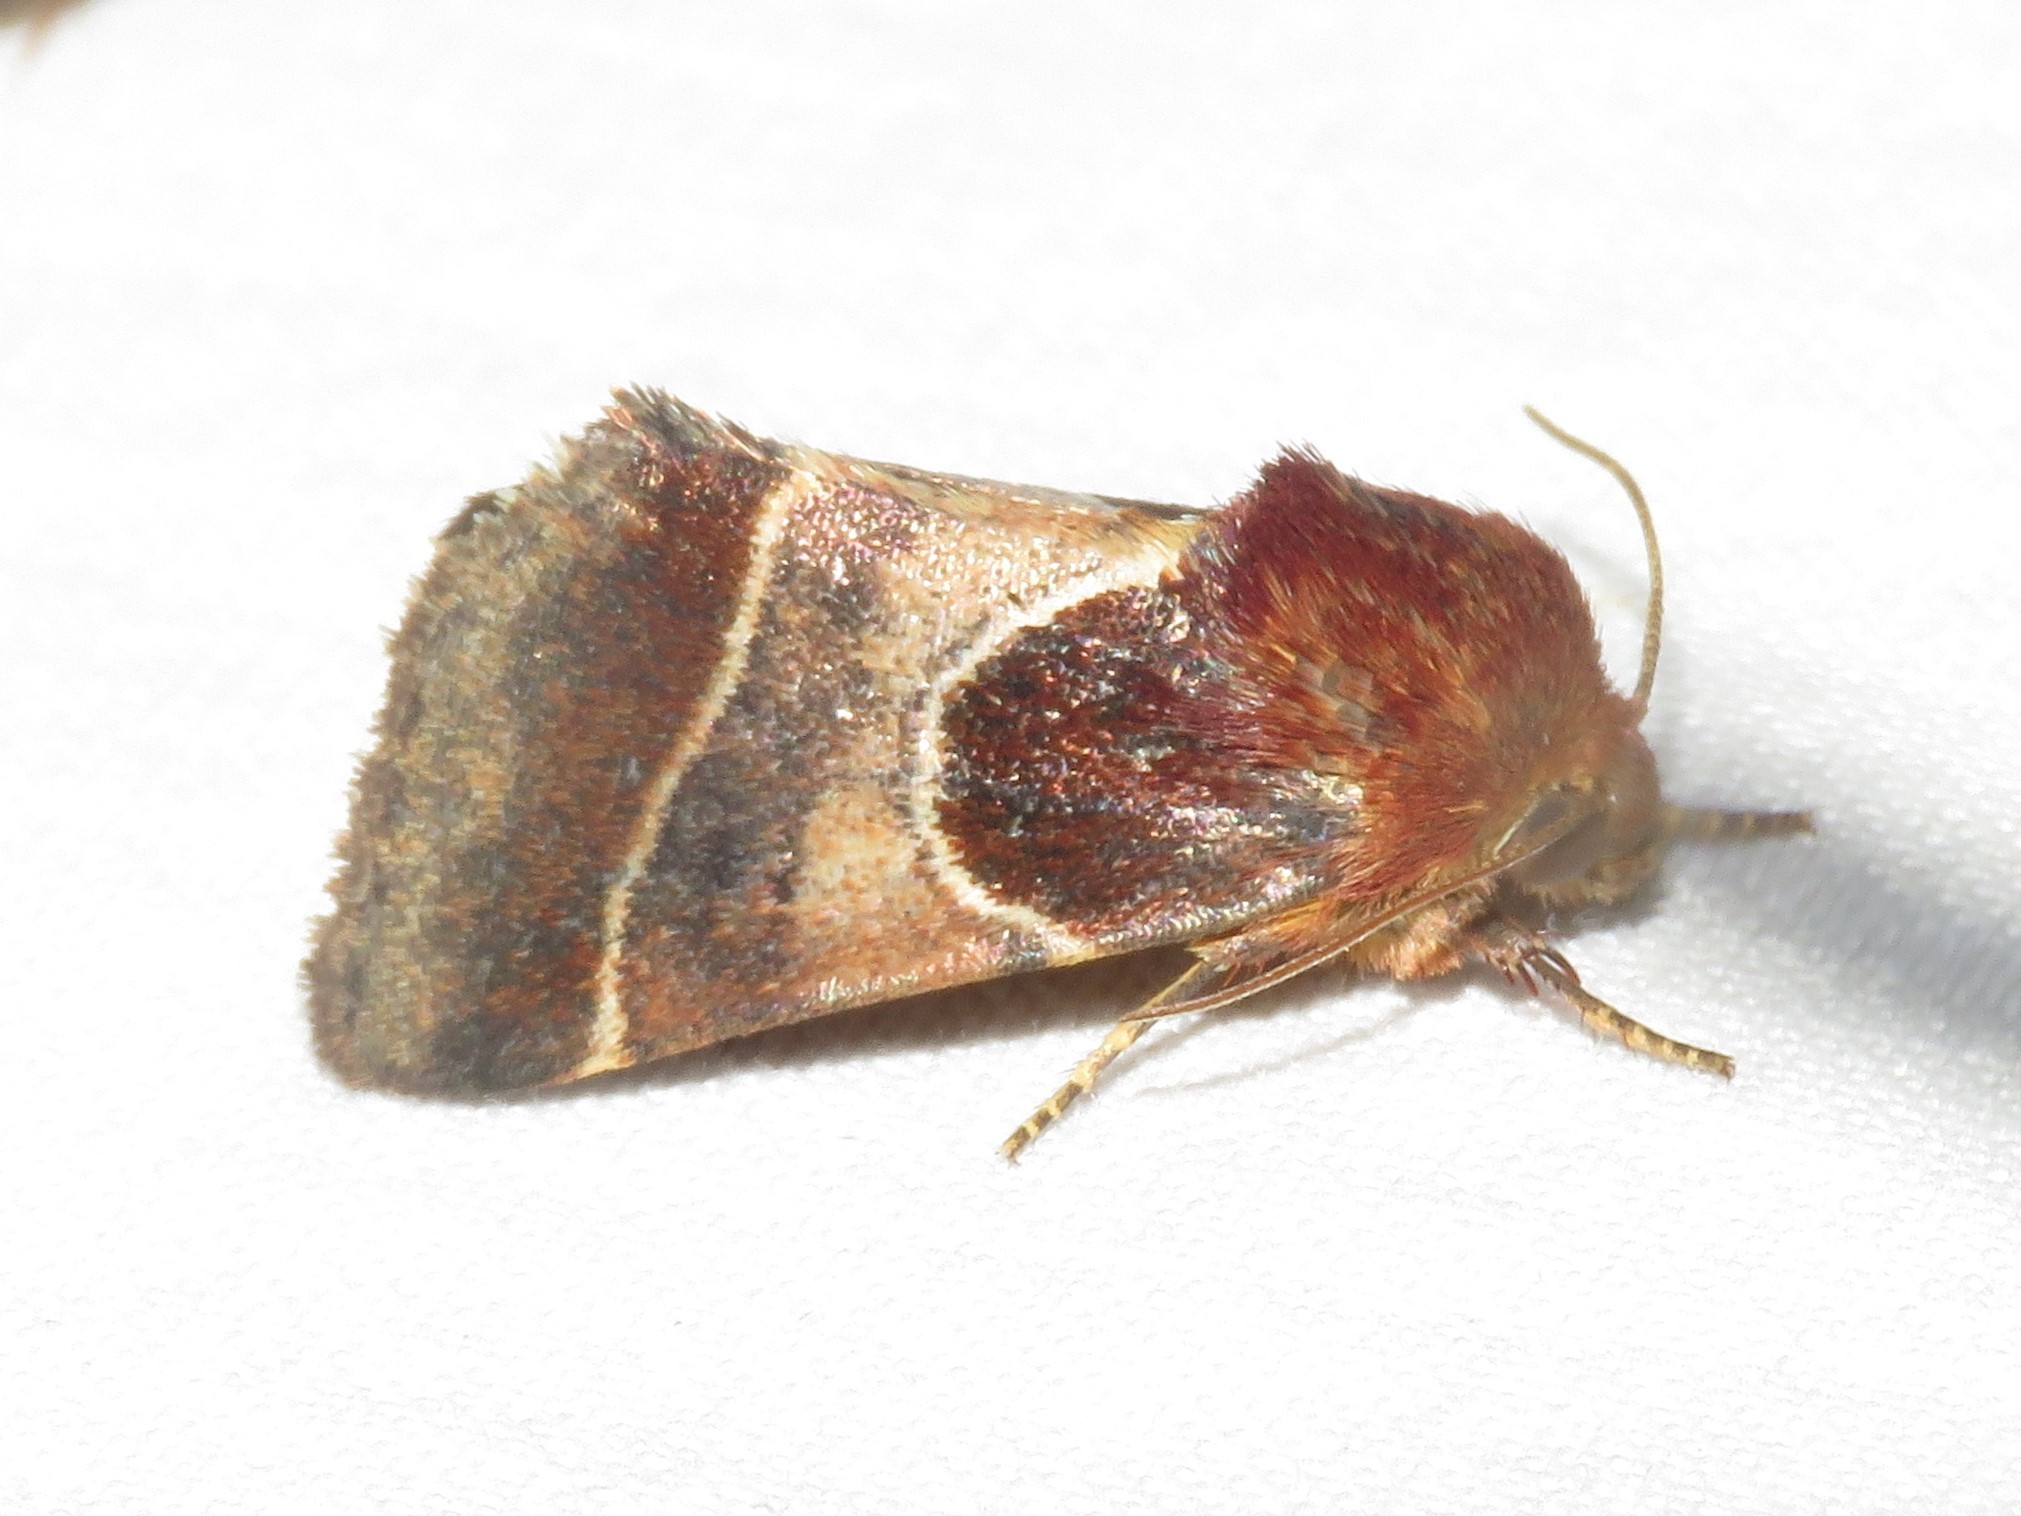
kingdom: Animalia
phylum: Arthropoda
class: Insecta
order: Lepidoptera
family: Noctuidae
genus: Schinia
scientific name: Schinia arcigera
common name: Arcigera flower moth
